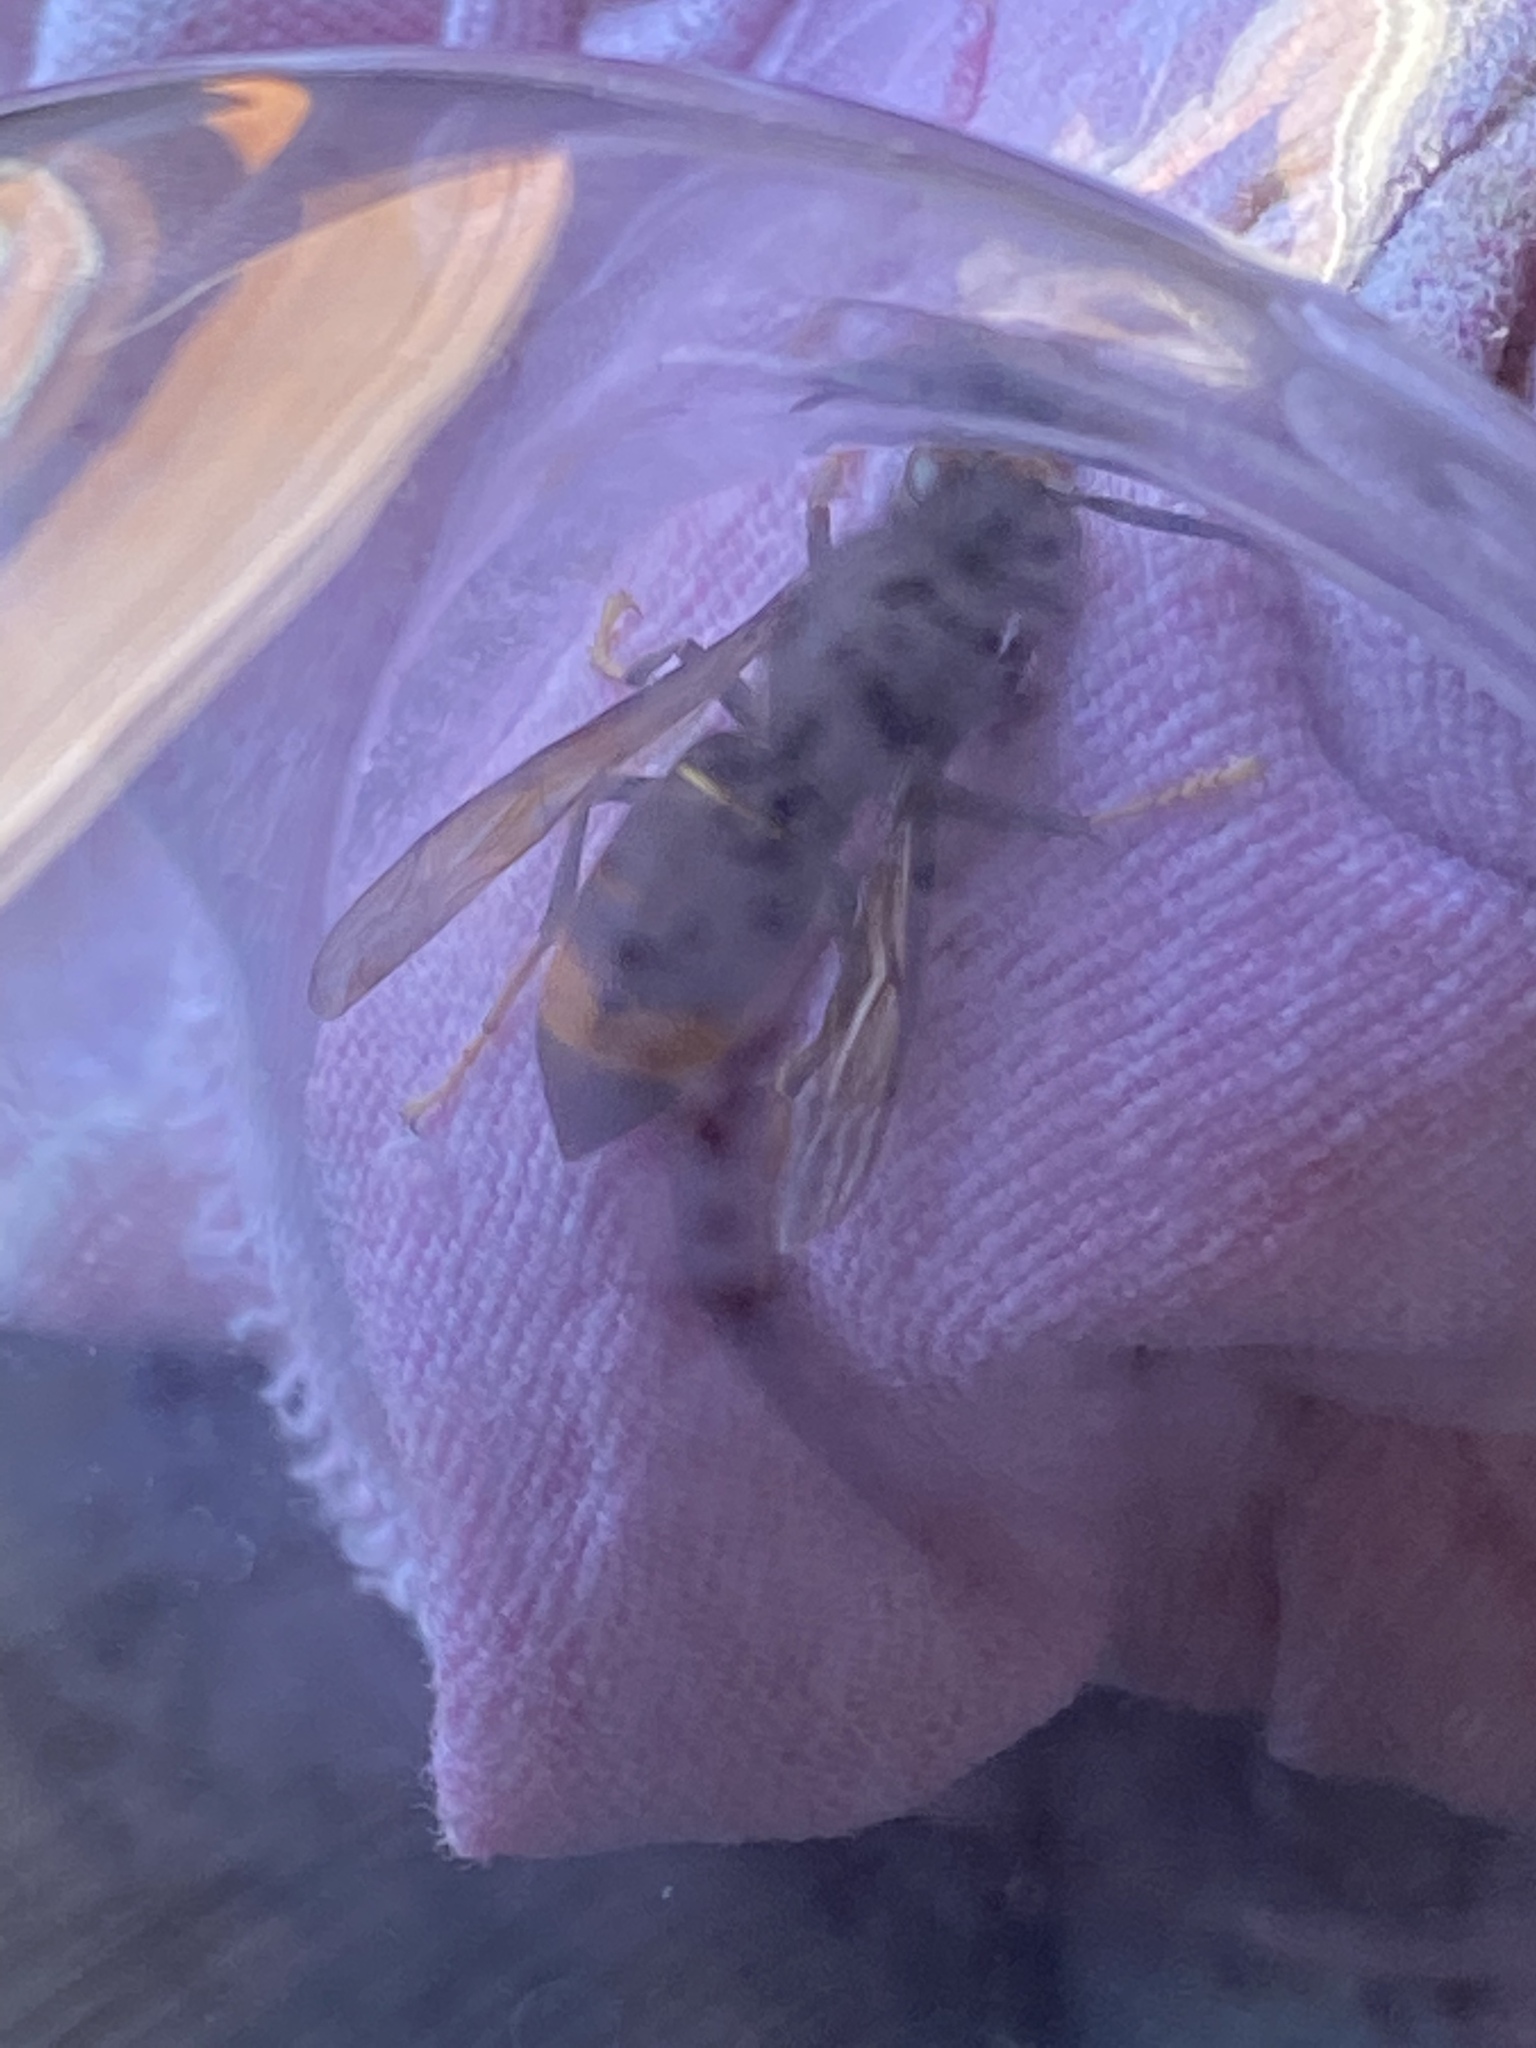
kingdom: Animalia
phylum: Arthropoda
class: Insecta
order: Hymenoptera
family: Vespidae
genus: Vespa
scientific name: Vespa velutina
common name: Asian hornet
